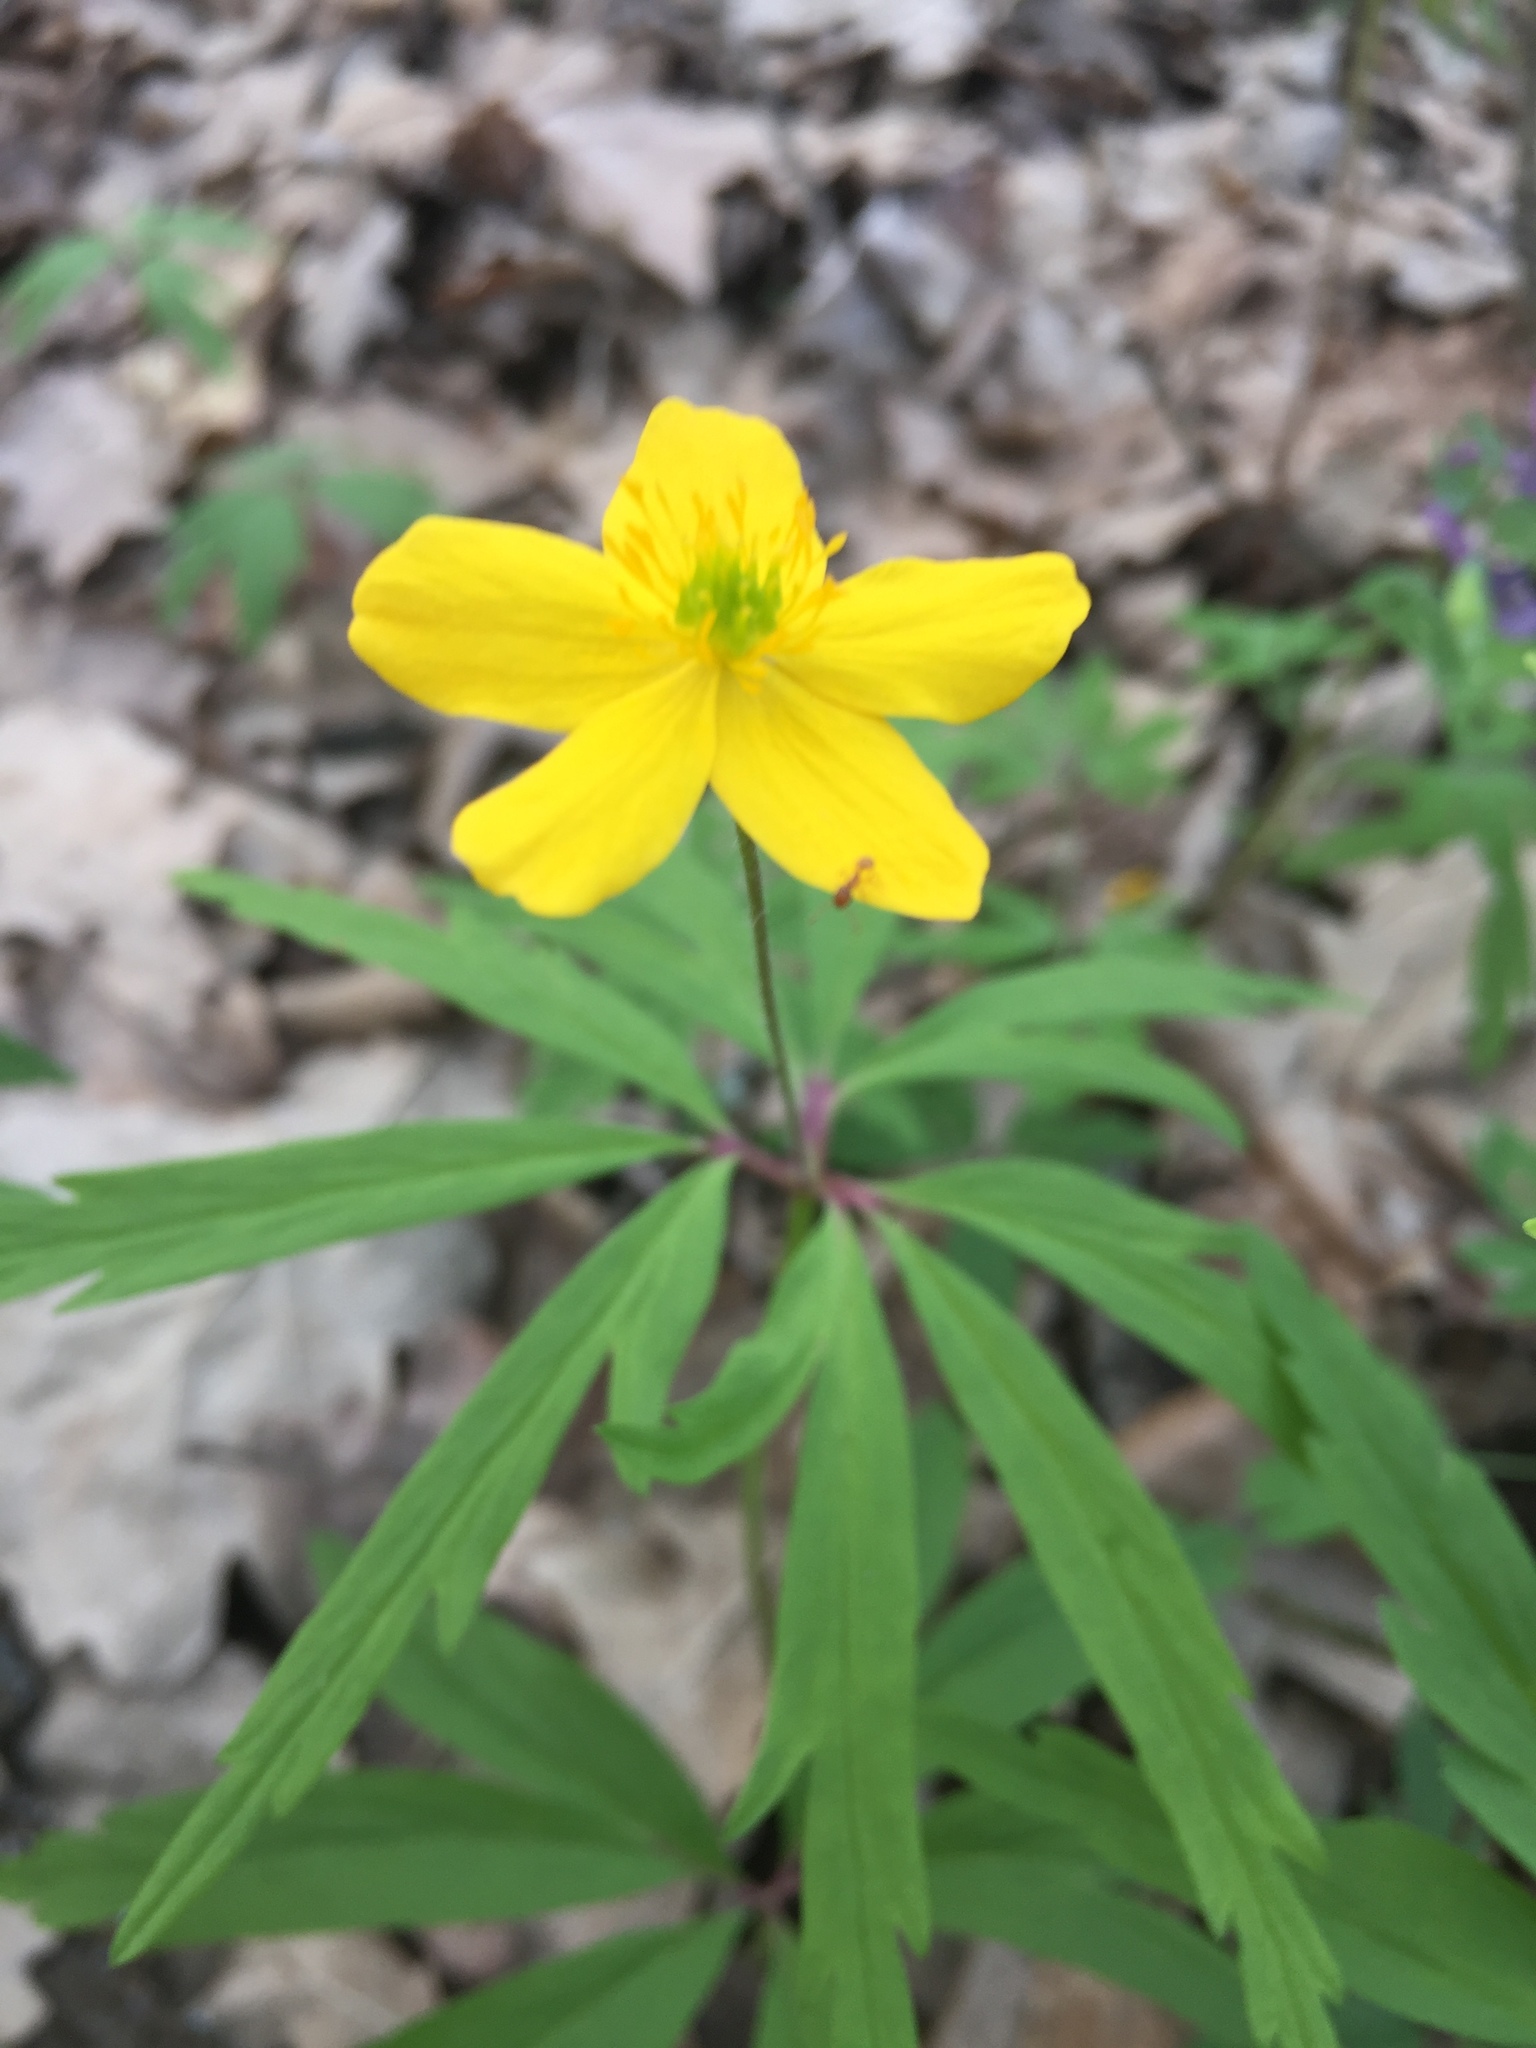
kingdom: Plantae
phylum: Tracheophyta
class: Magnoliopsida
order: Ranunculales
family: Ranunculaceae
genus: Anemone
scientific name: Anemone ranunculoides
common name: Yellow anemone
